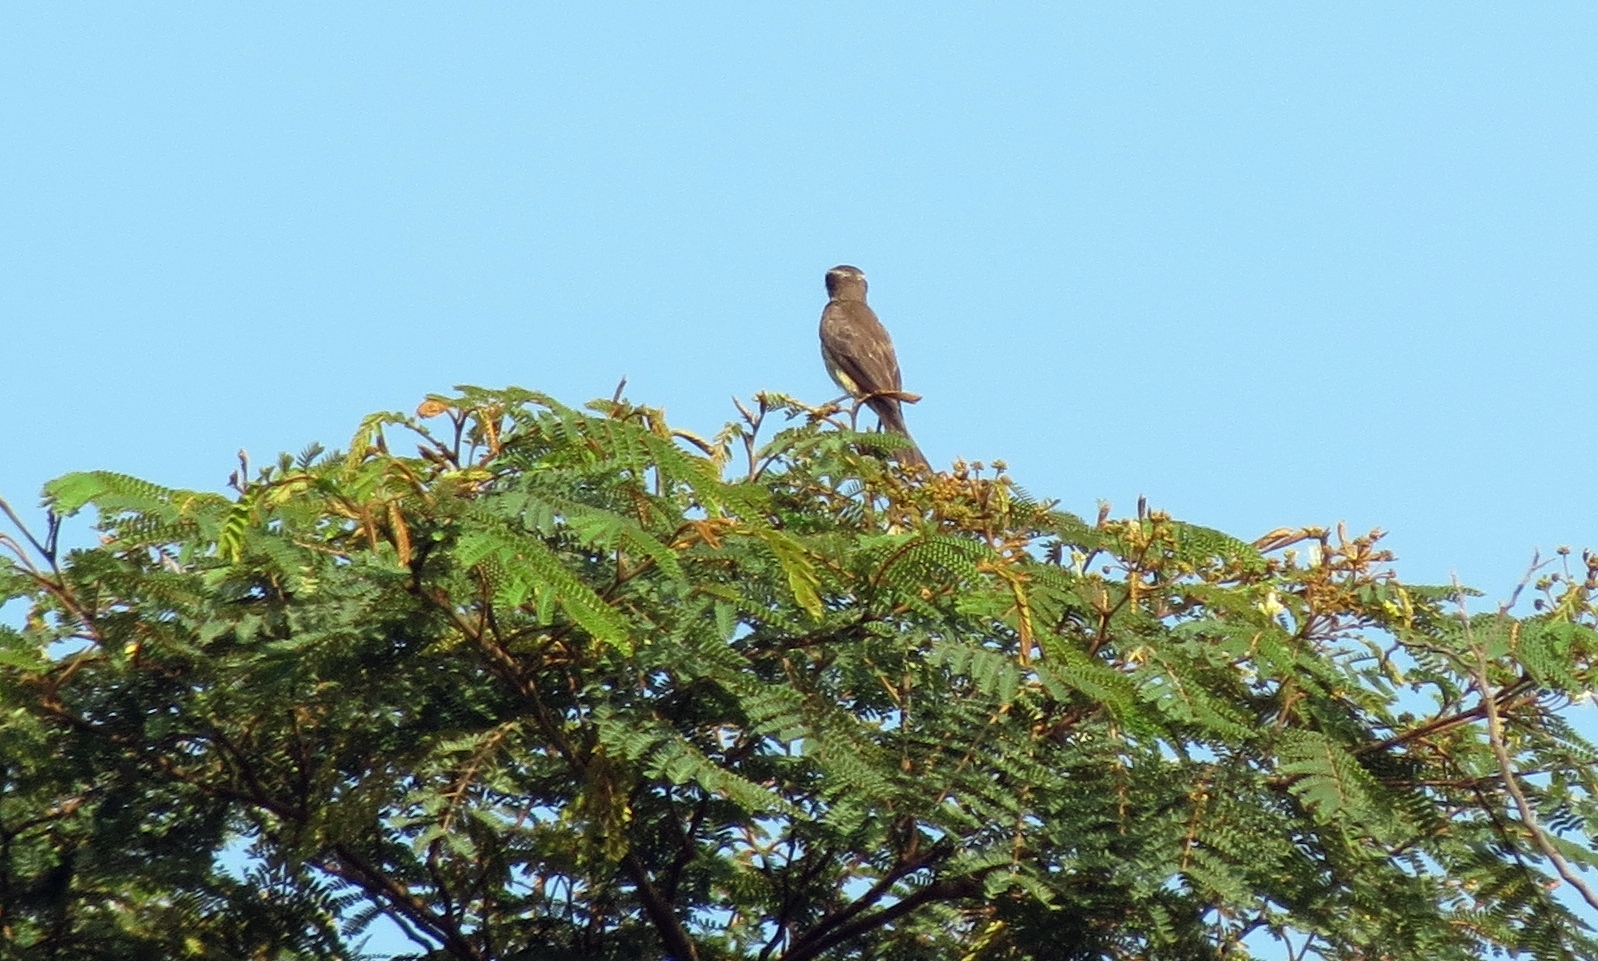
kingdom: Animalia
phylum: Chordata
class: Aves
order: Passeriformes
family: Tyrannidae
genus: Legatus
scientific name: Legatus leucophaius
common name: Piratic flycatcher
